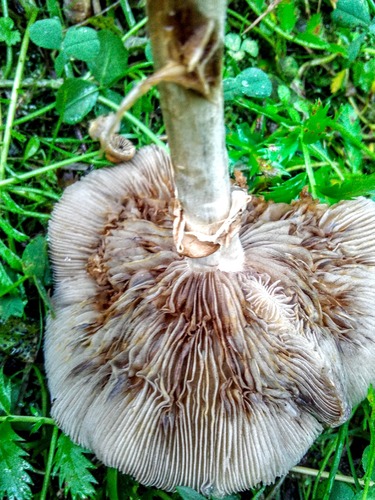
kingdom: Fungi
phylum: Basidiomycota
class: Agaricomycetes
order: Agaricales
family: Strophariaceae
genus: Agrocybe
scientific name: Agrocybe
